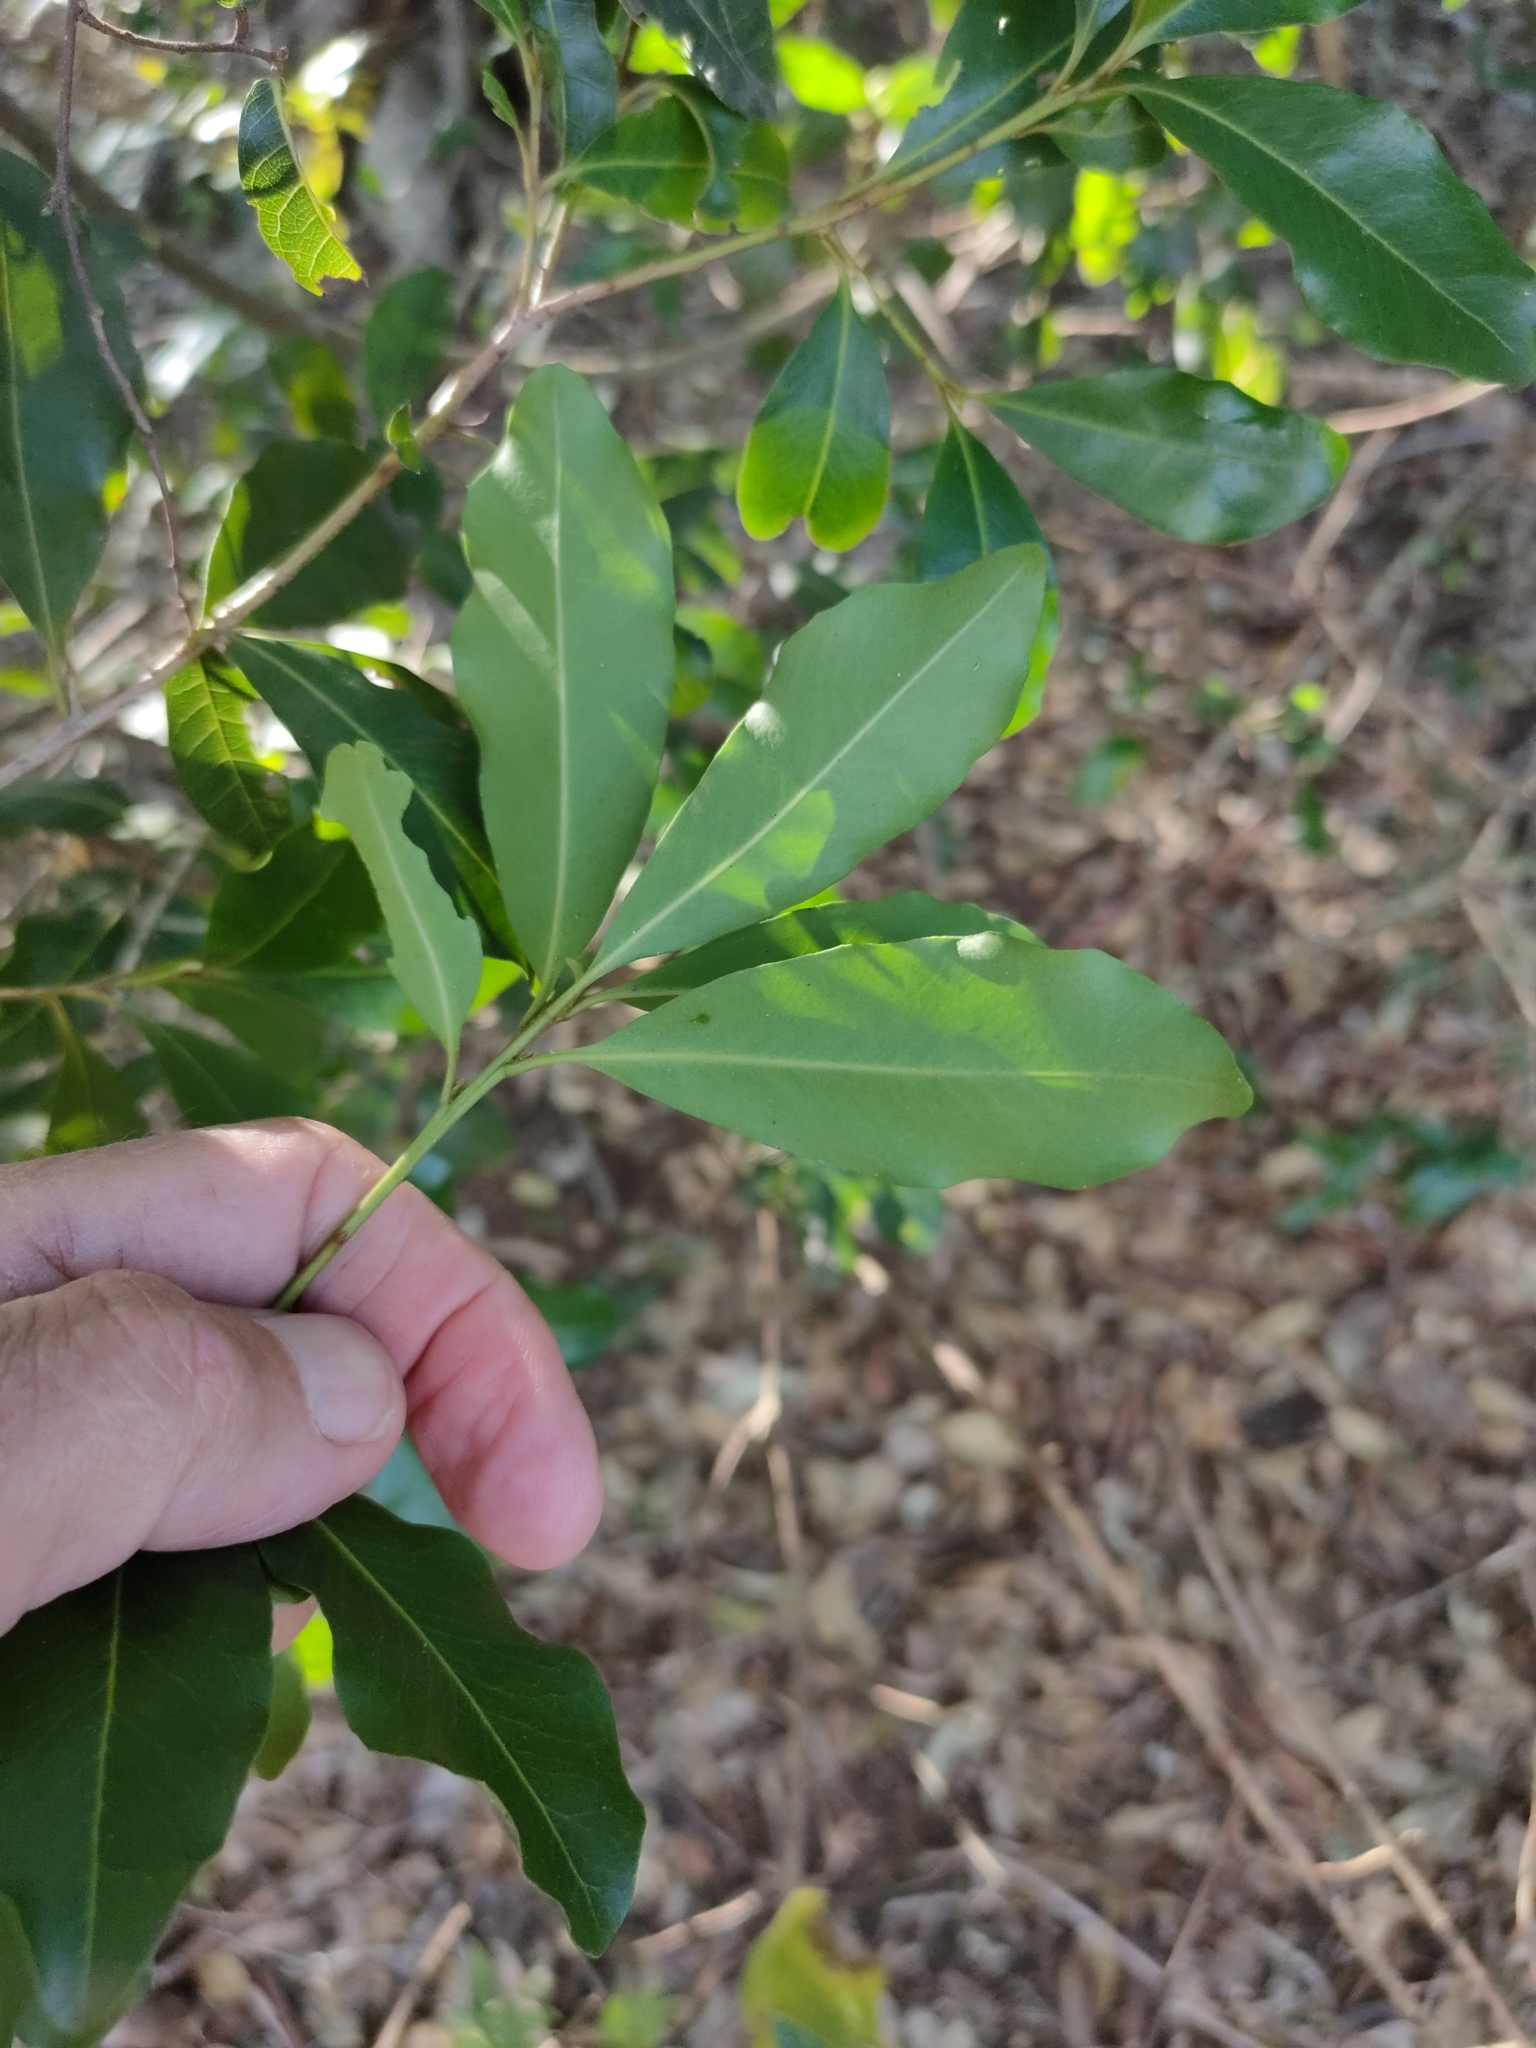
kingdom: Plantae
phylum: Tracheophyta
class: Magnoliopsida
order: Ericales
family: Primulaceae
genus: Myrsine
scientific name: Myrsine variabilis
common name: Brush muttonwood
